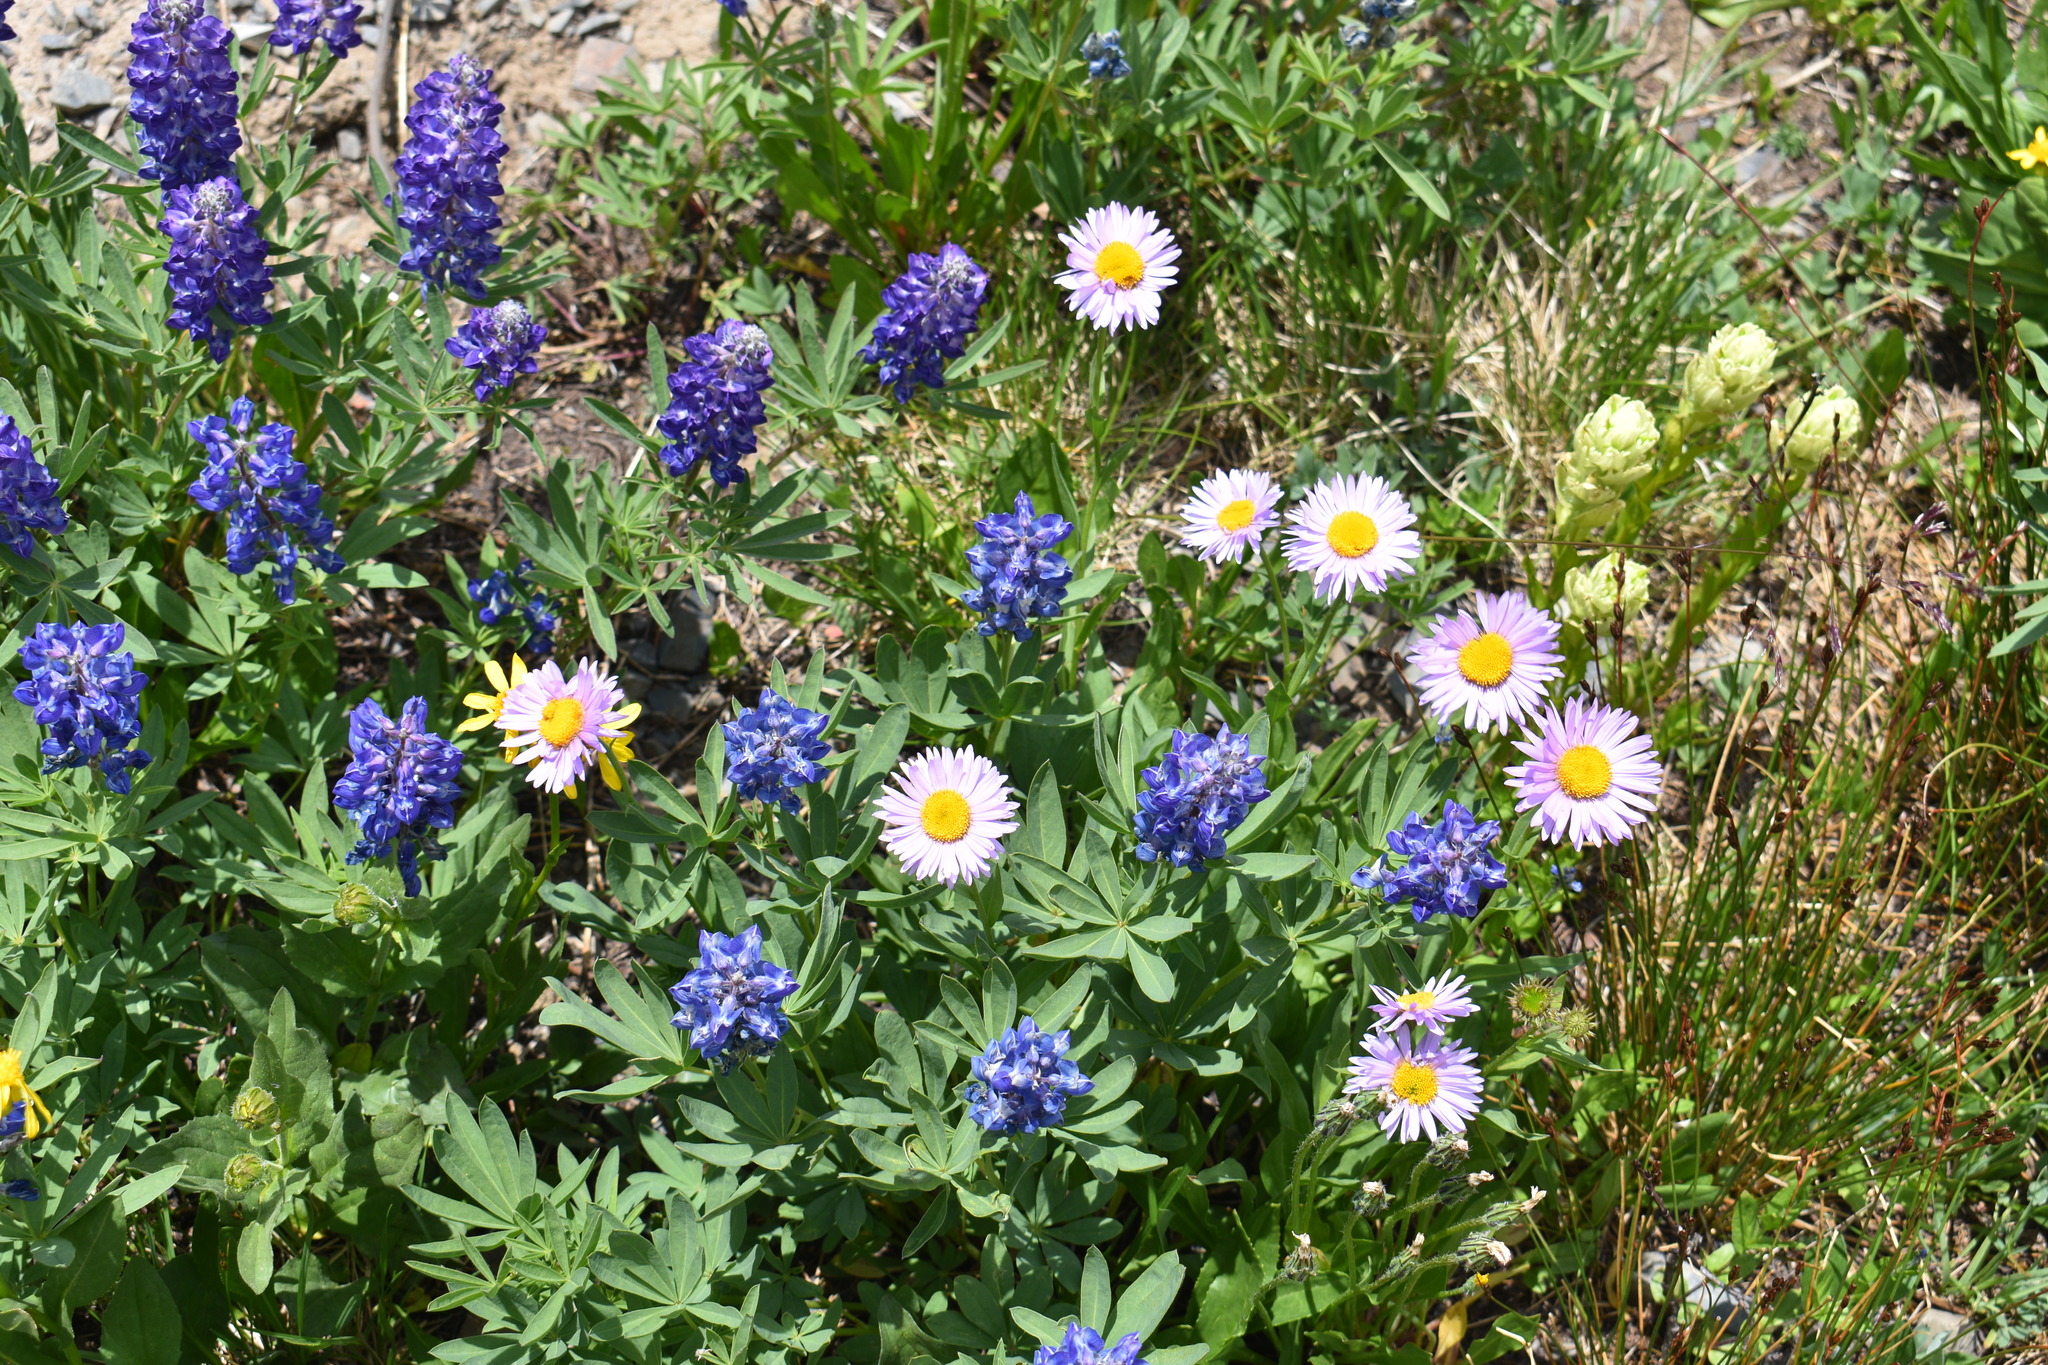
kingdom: Plantae
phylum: Tracheophyta
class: Magnoliopsida
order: Asterales
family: Asteraceae
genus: Erigeron
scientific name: Erigeron glacialis
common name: Subalpine fleabane
